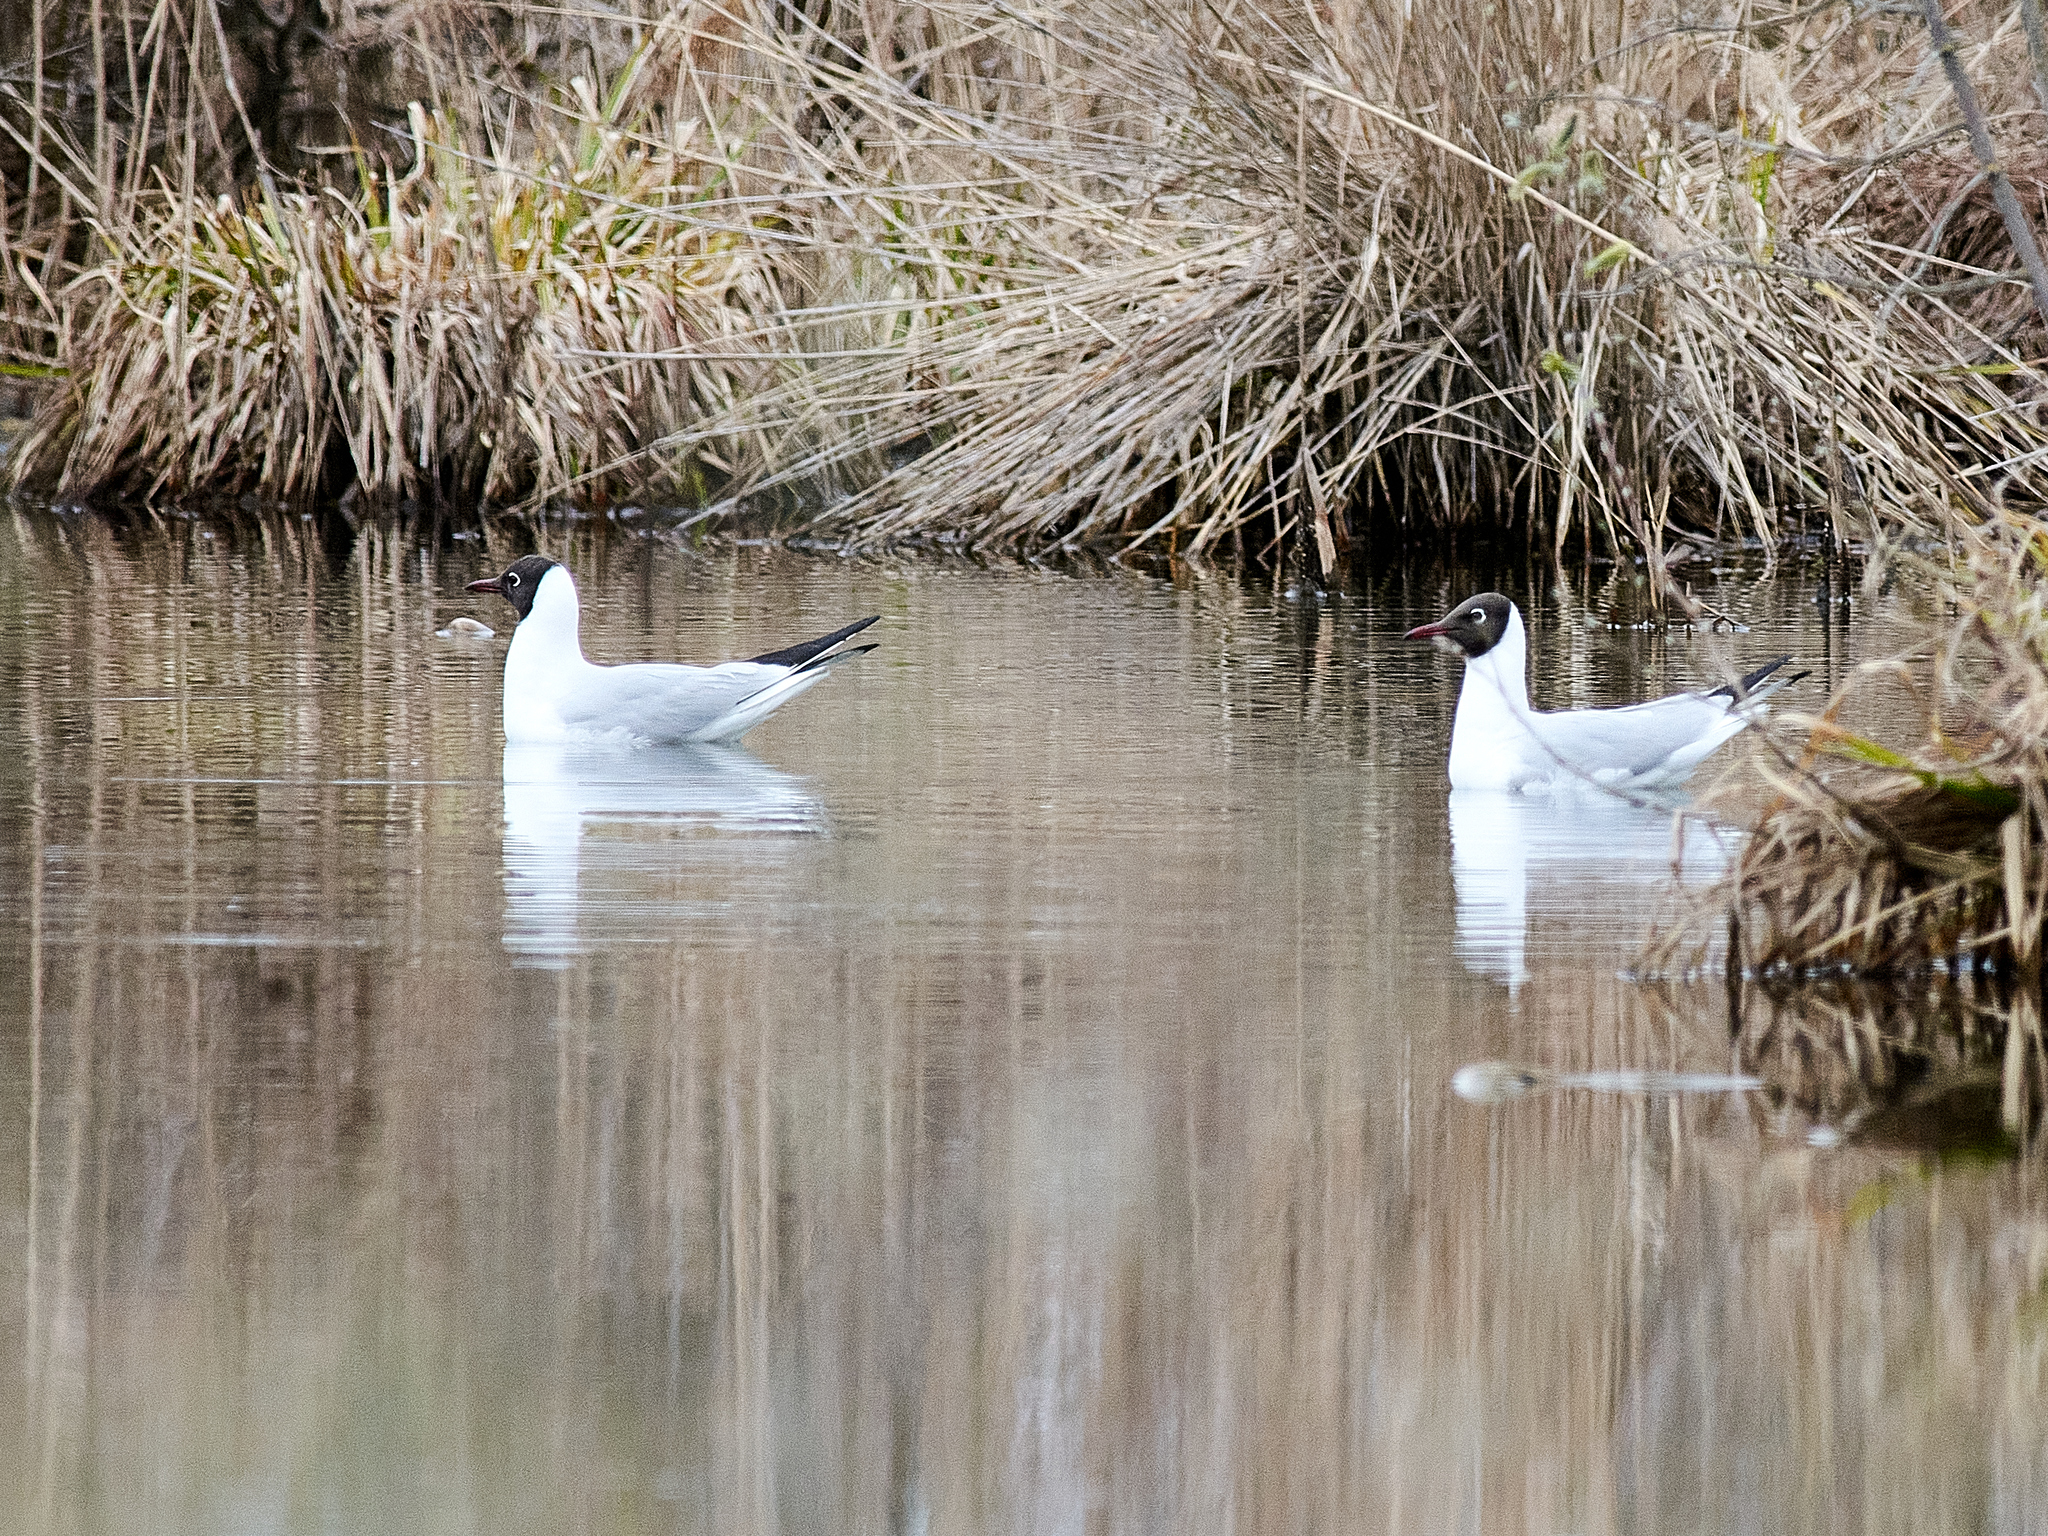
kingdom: Animalia
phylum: Chordata
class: Aves
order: Charadriiformes
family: Laridae
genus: Chroicocephalus
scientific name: Chroicocephalus ridibundus
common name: Black-headed gull
